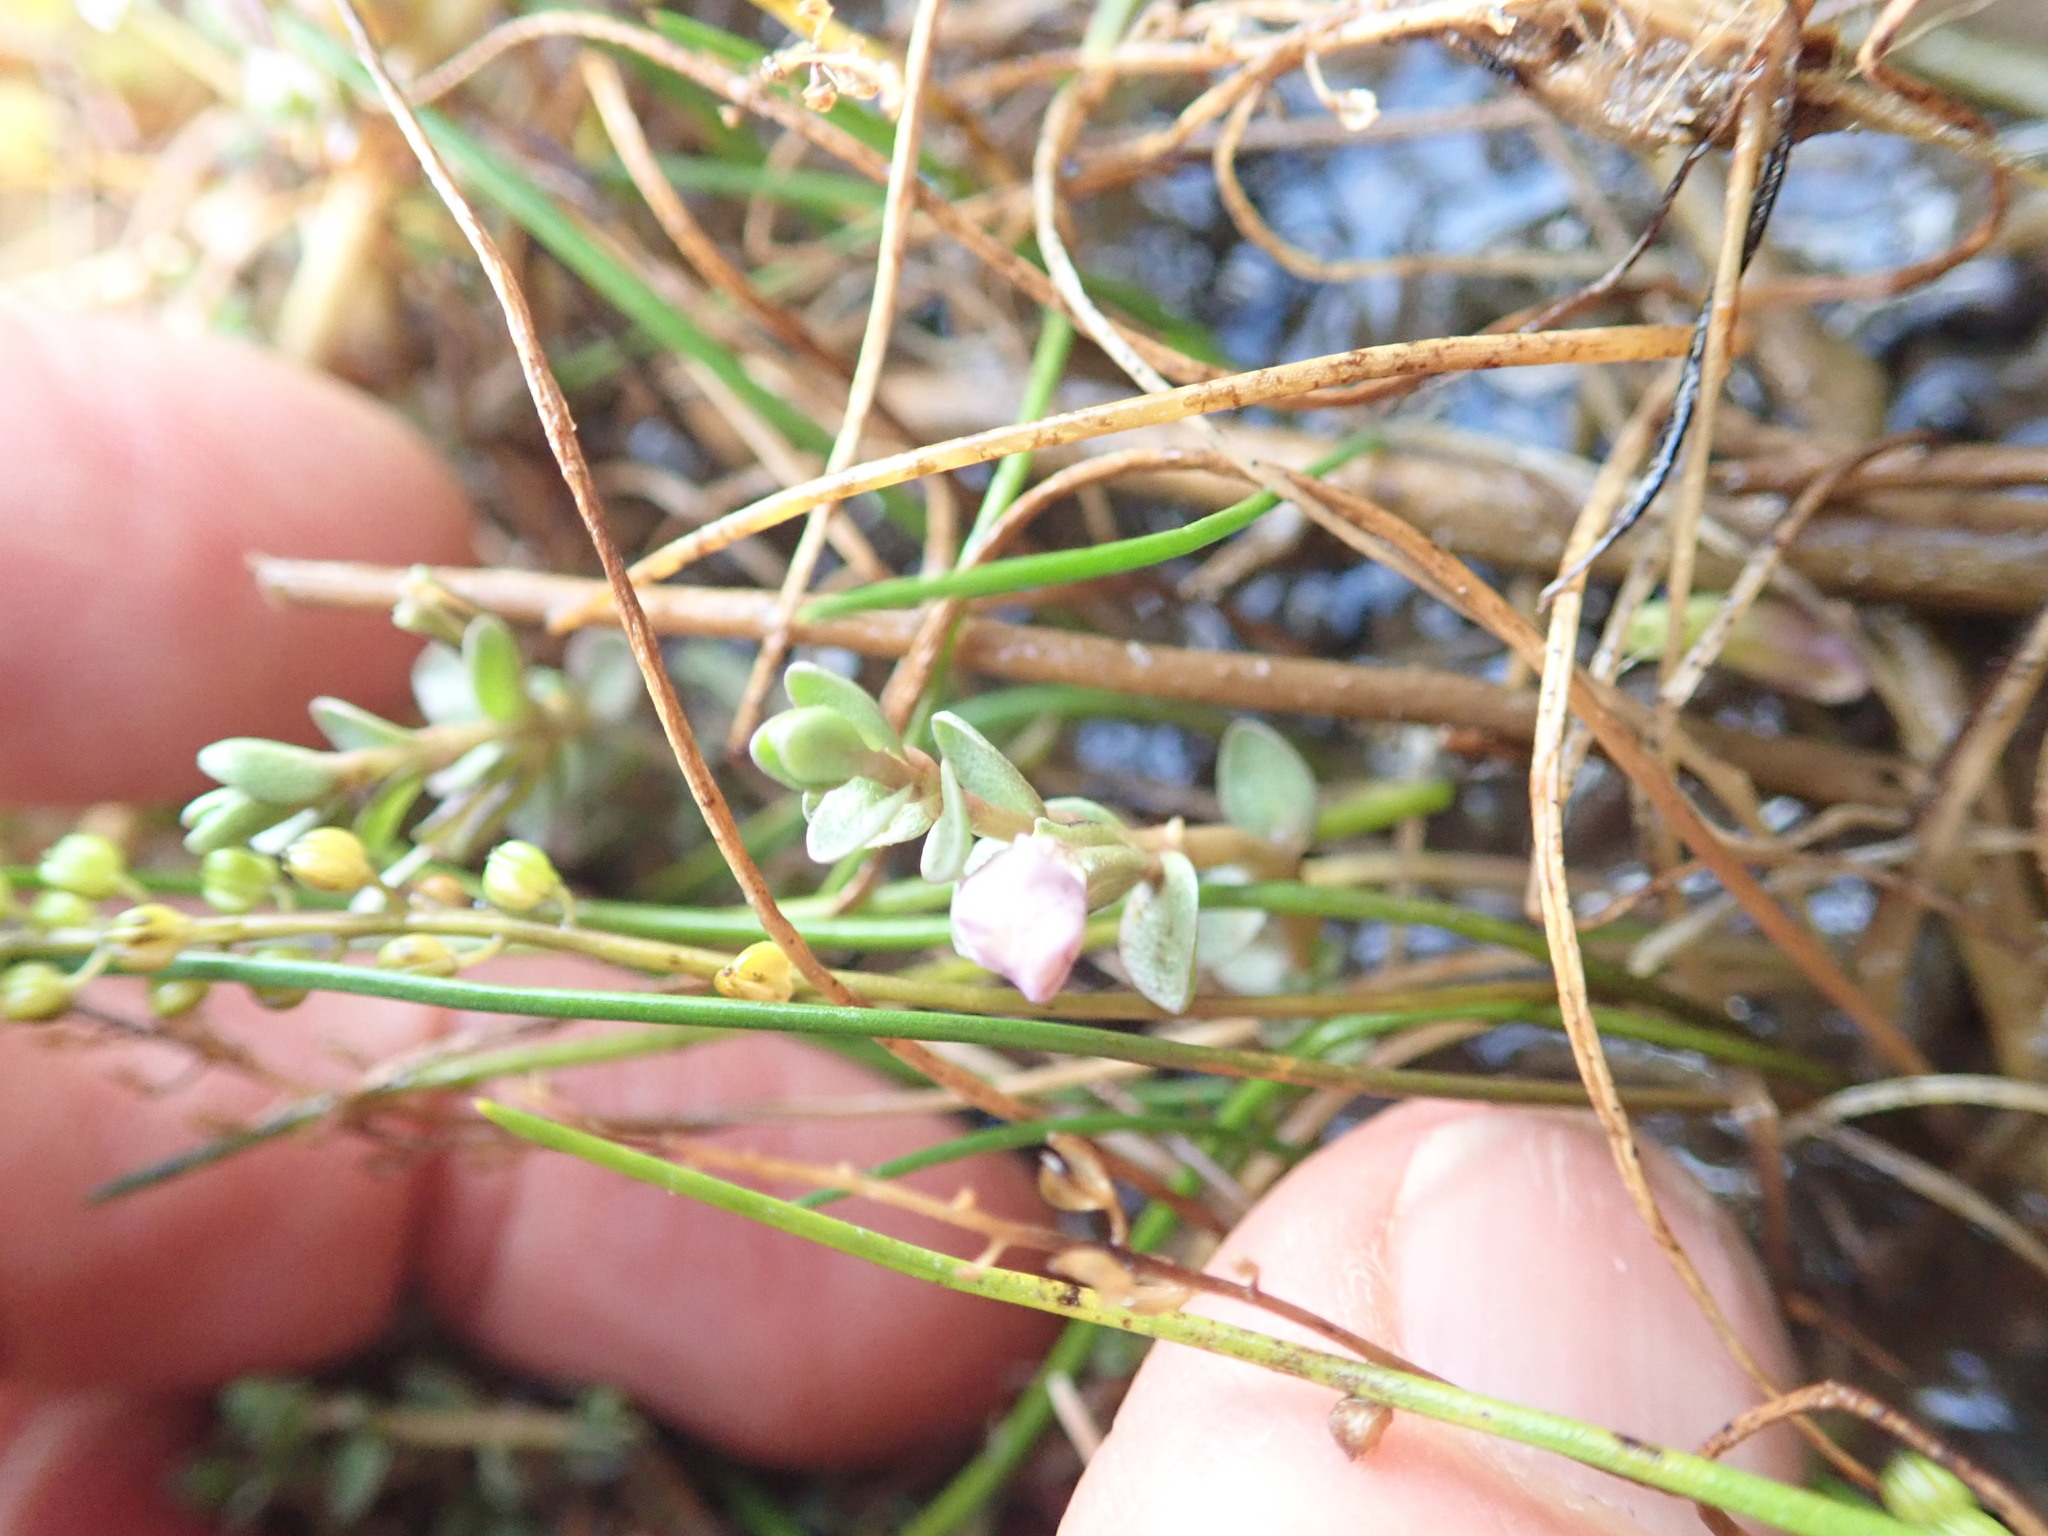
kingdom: Plantae
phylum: Tracheophyta
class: Magnoliopsida
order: Lamiales
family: Phrymaceae
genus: Thyridia
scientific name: Thyridia repens
